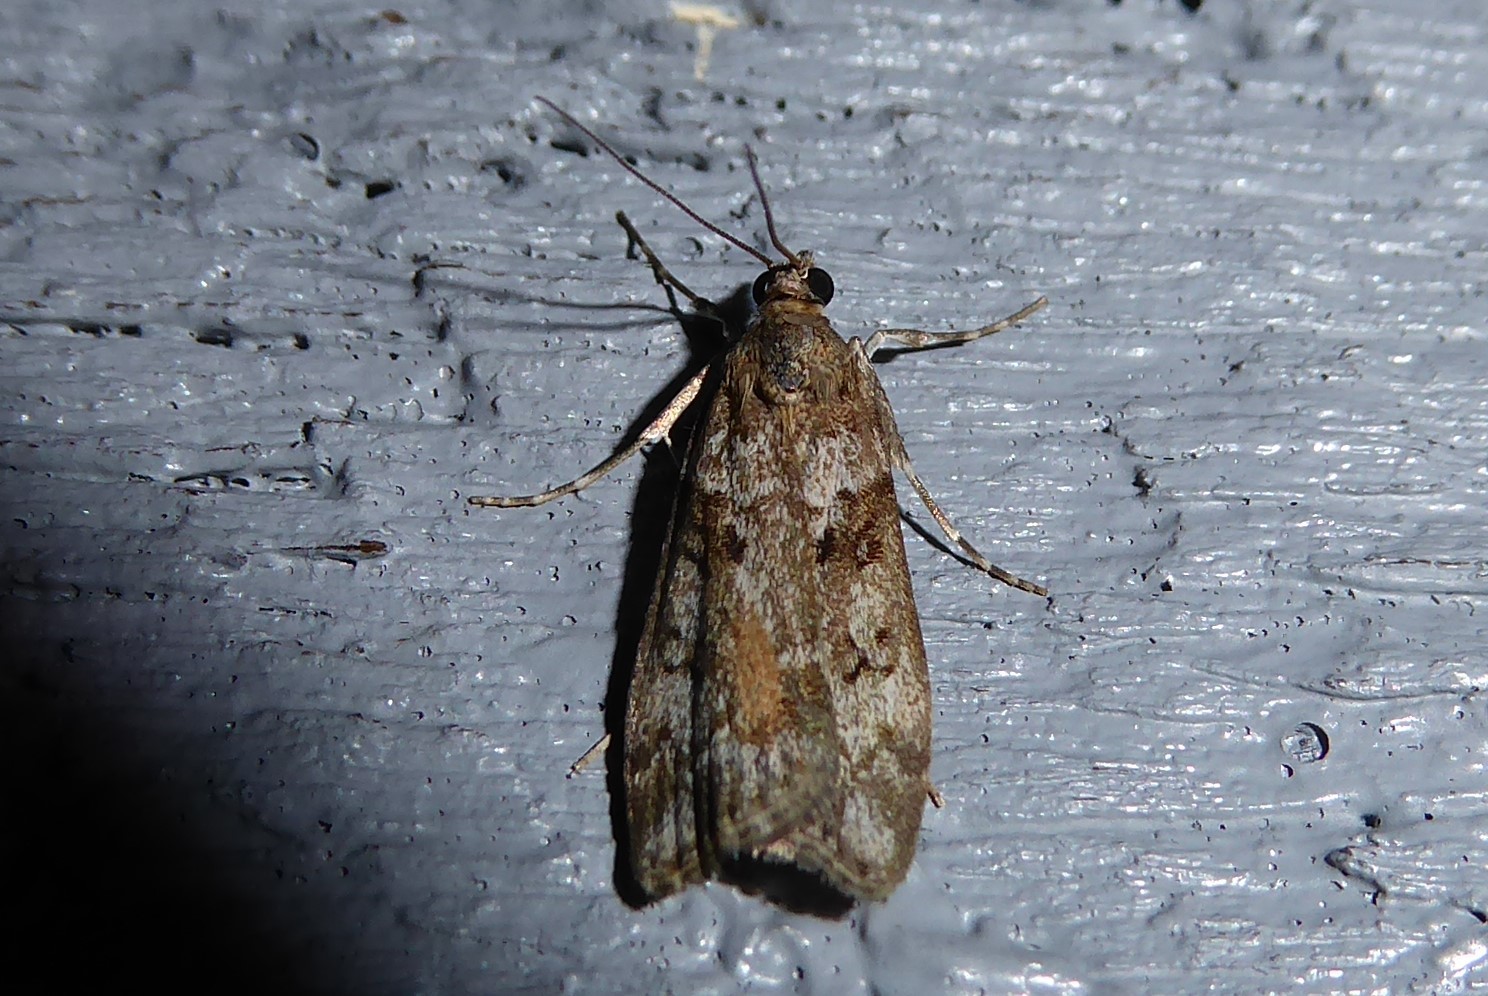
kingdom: Animalia
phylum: Arthropoda
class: Insecta
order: Lepidoptera
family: Crambidae
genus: Eudonia
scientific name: Eudonia submarginalis
